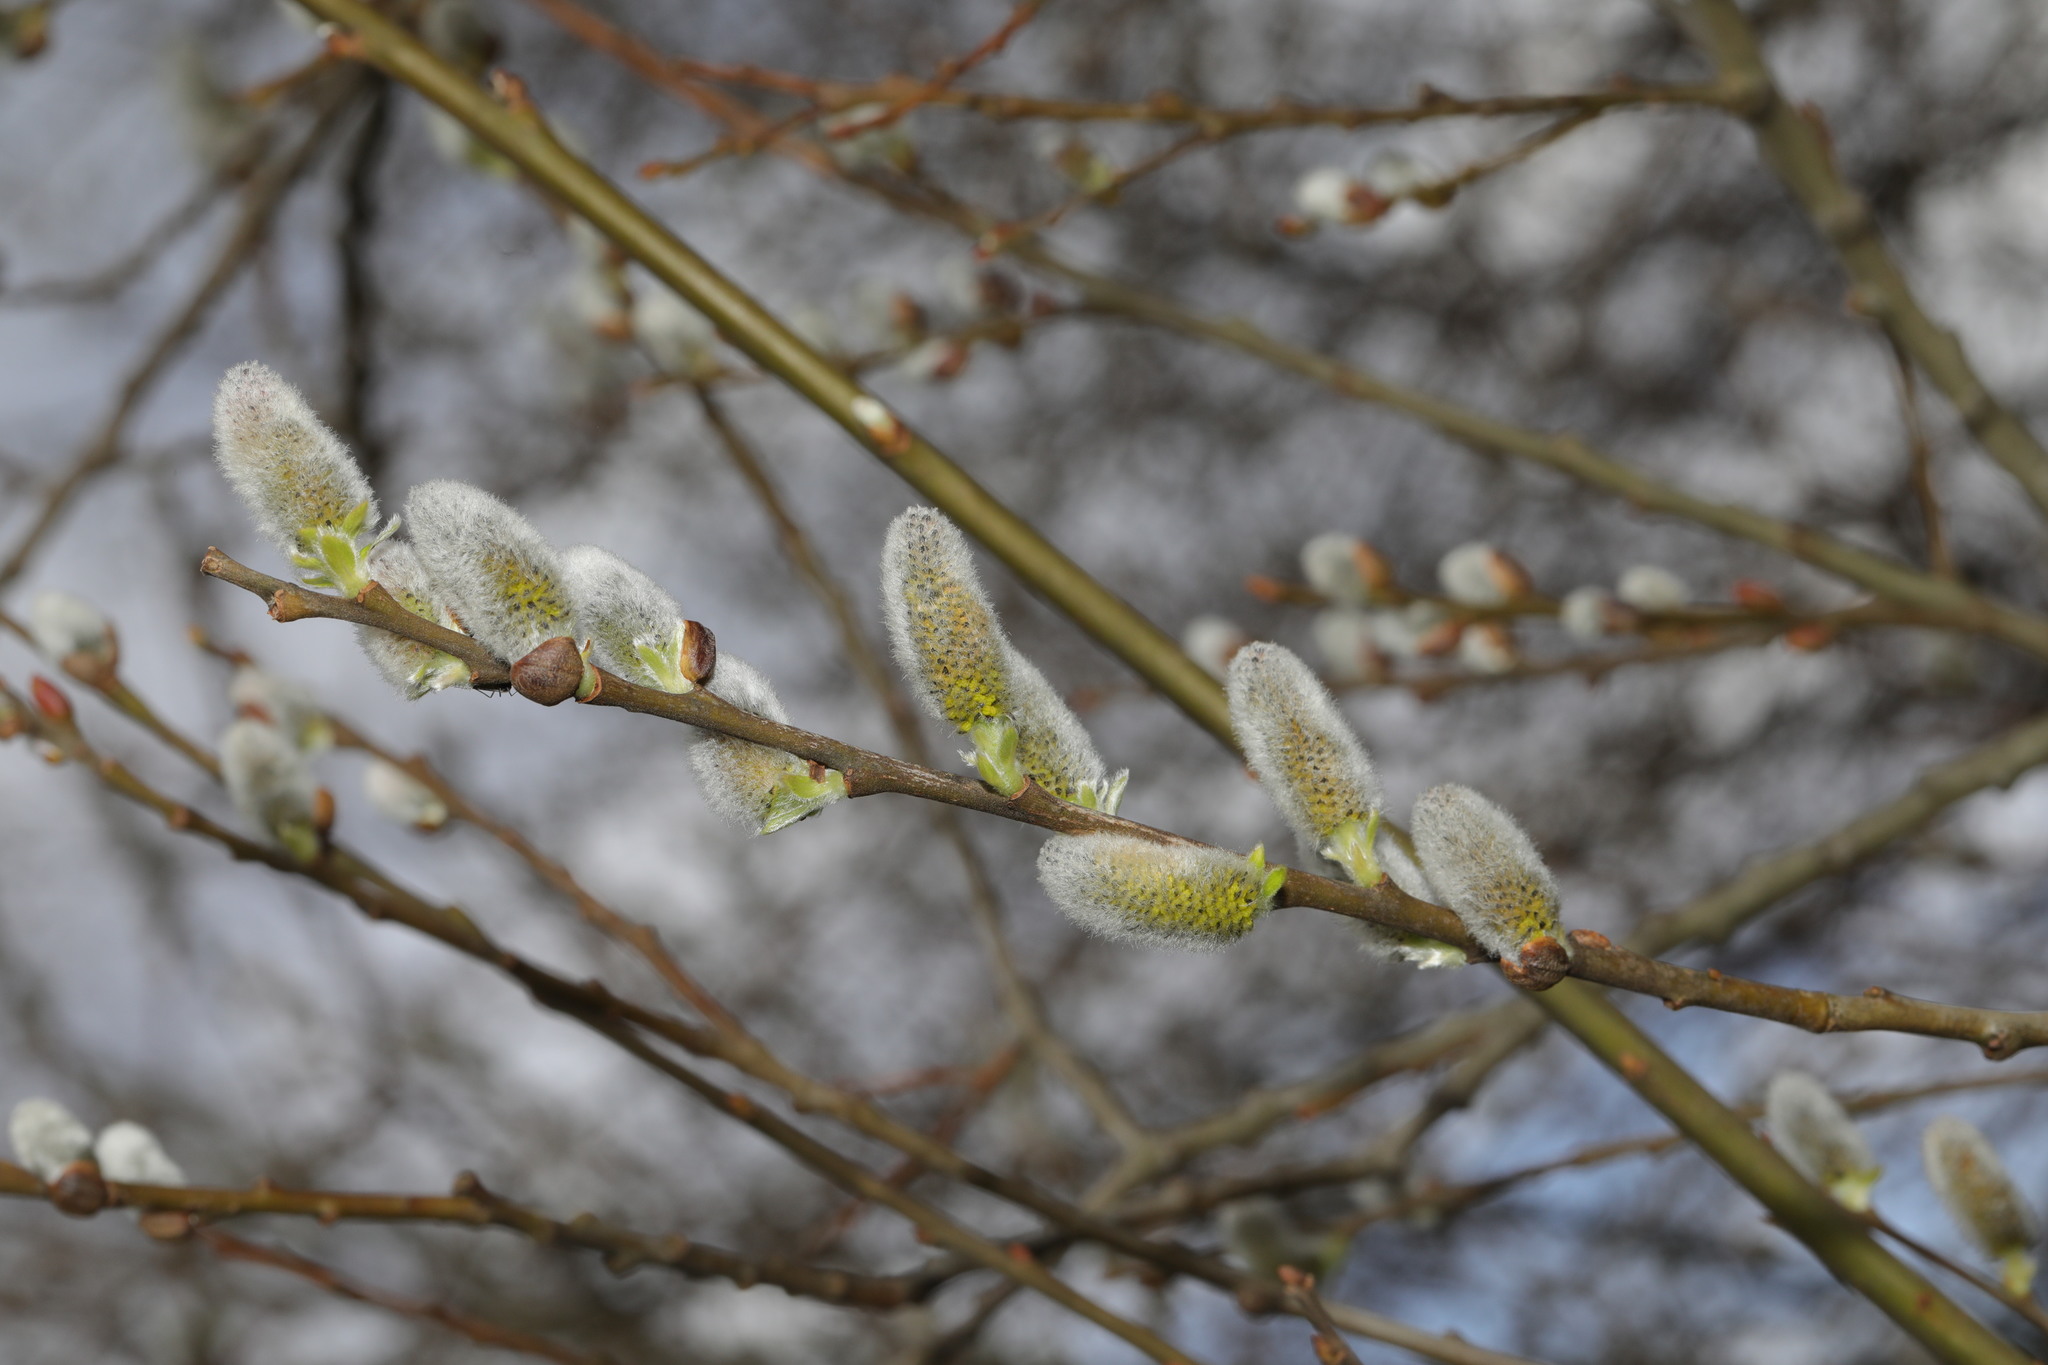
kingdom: Plantae
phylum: Tracheophyta
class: Magnoliopsida
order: Malpighiales
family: Salicaceae
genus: Salix
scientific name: Salix caprea
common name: Goat willow
